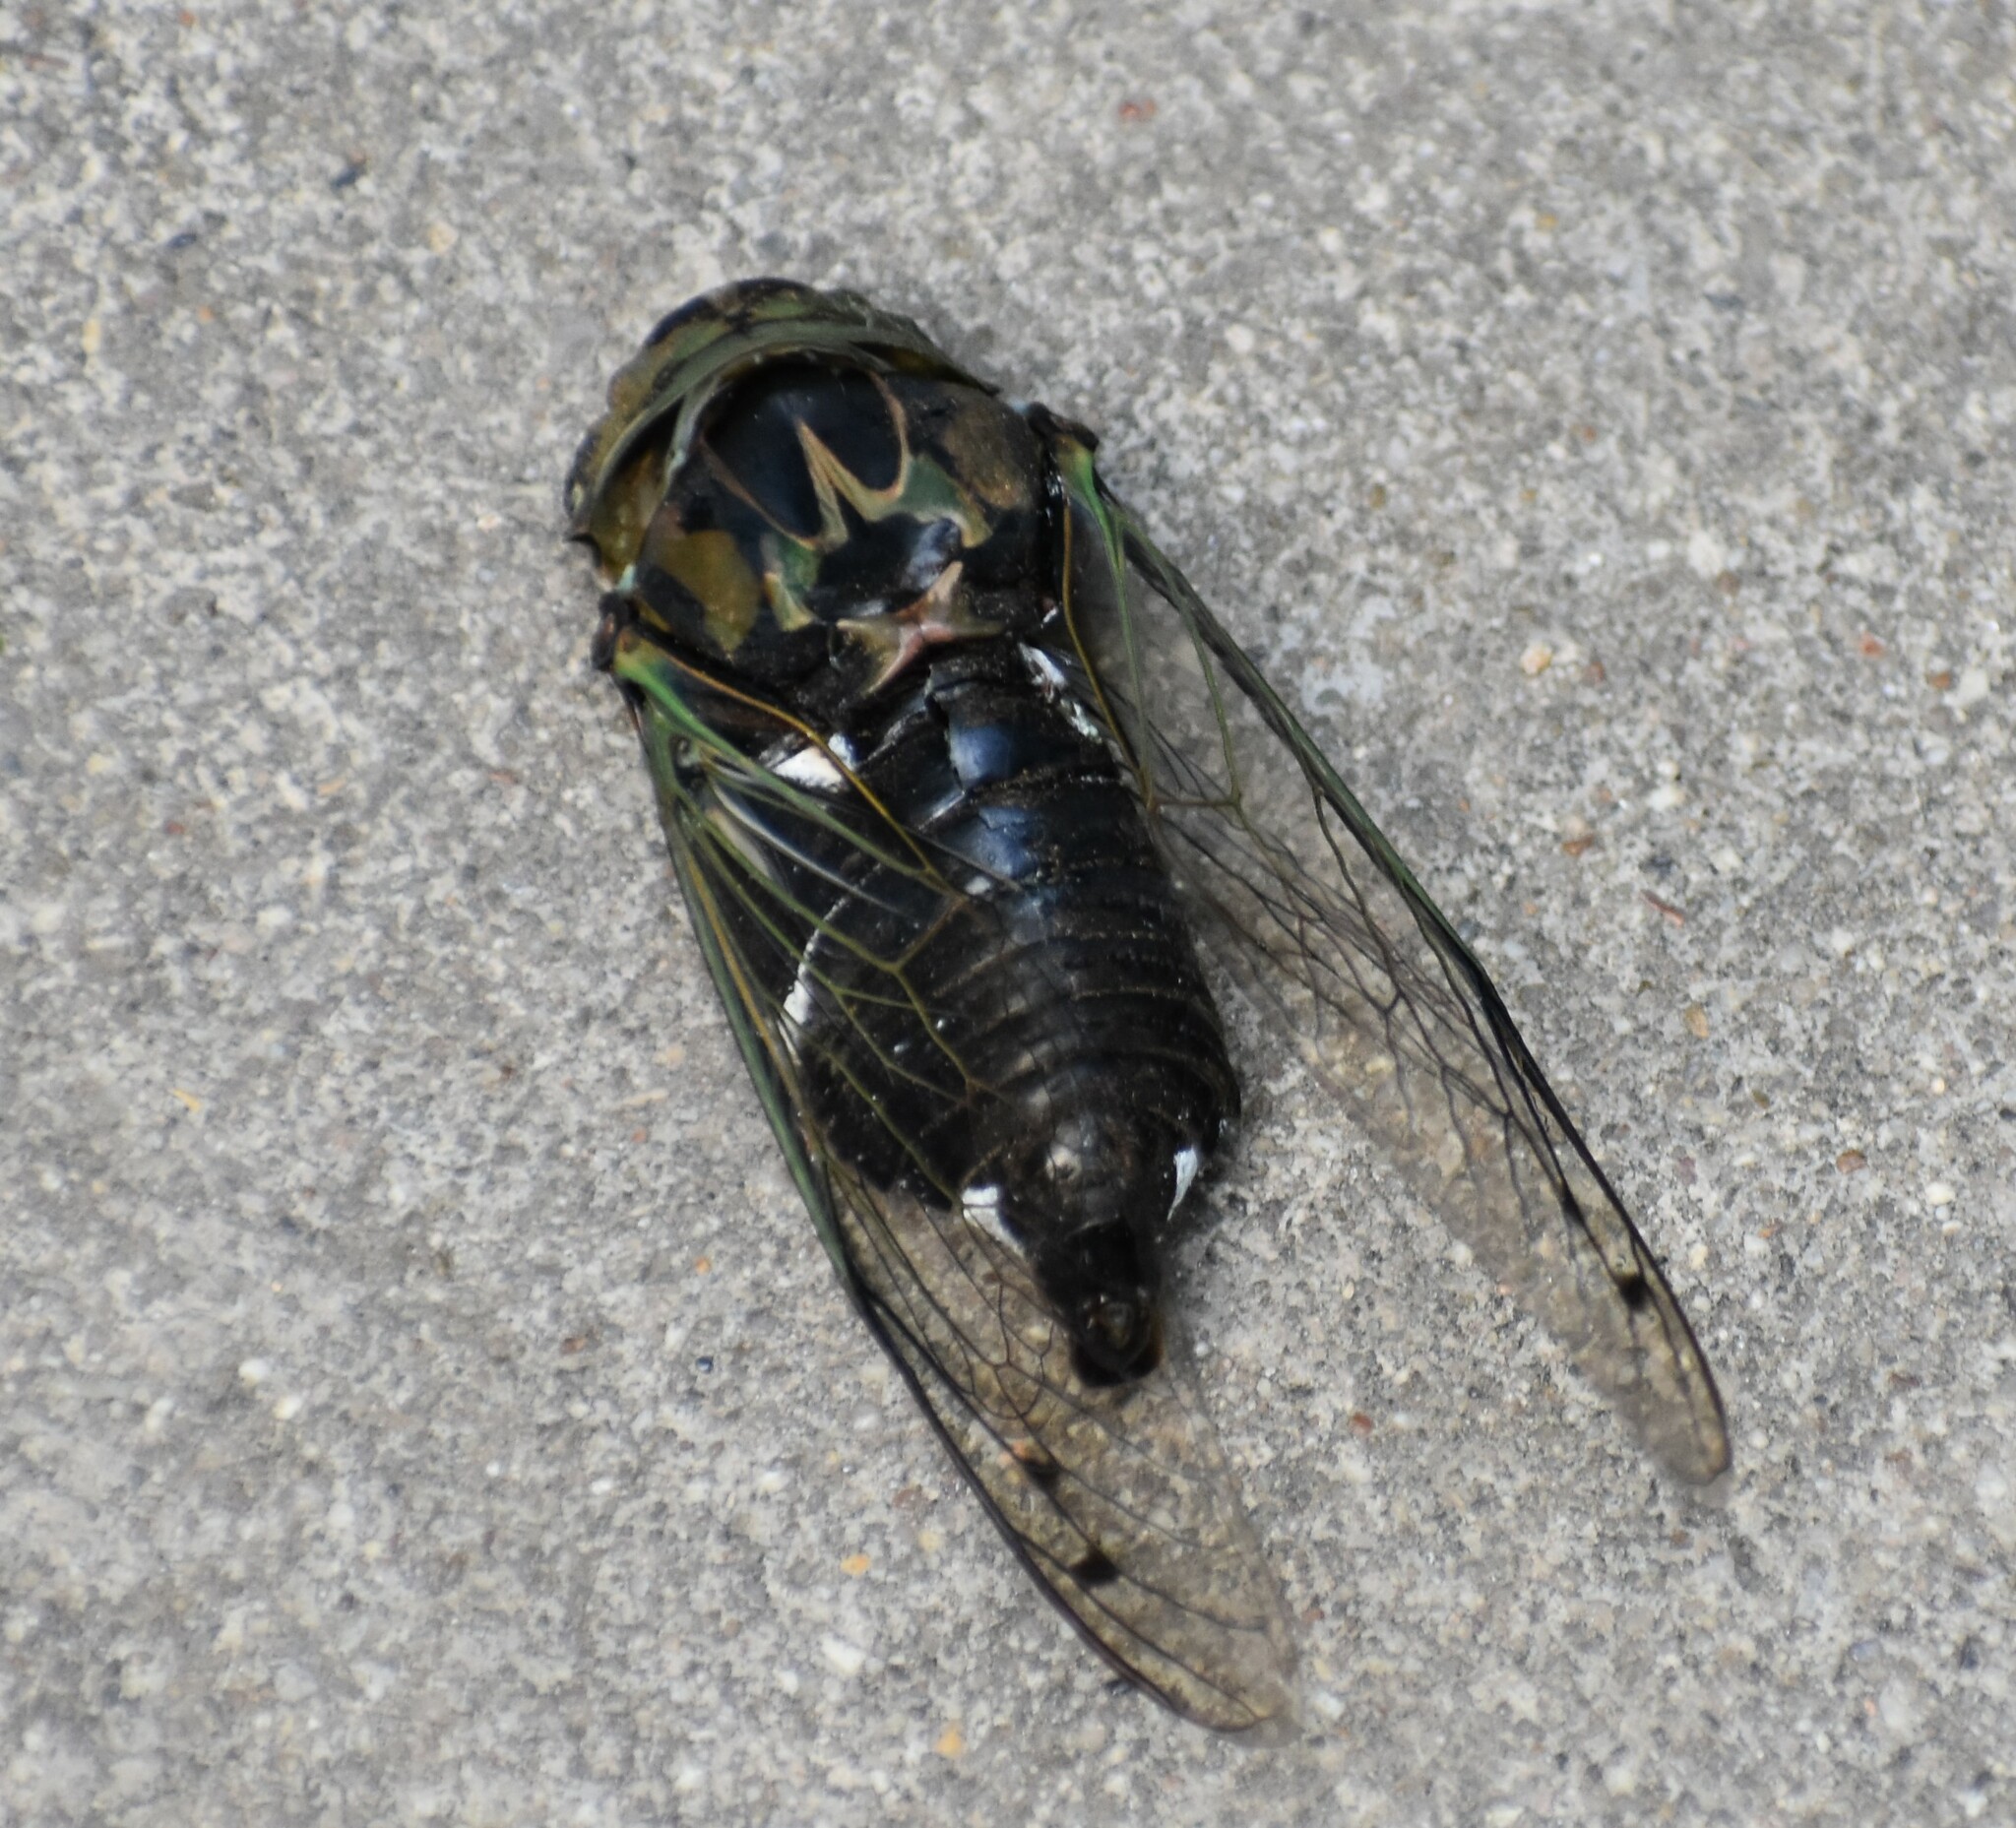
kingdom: Animalia
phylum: Arthropoda
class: Insecta
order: Hemiptera
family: Cicadidae
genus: Neotibicen
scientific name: Neotibicen pruinosus
